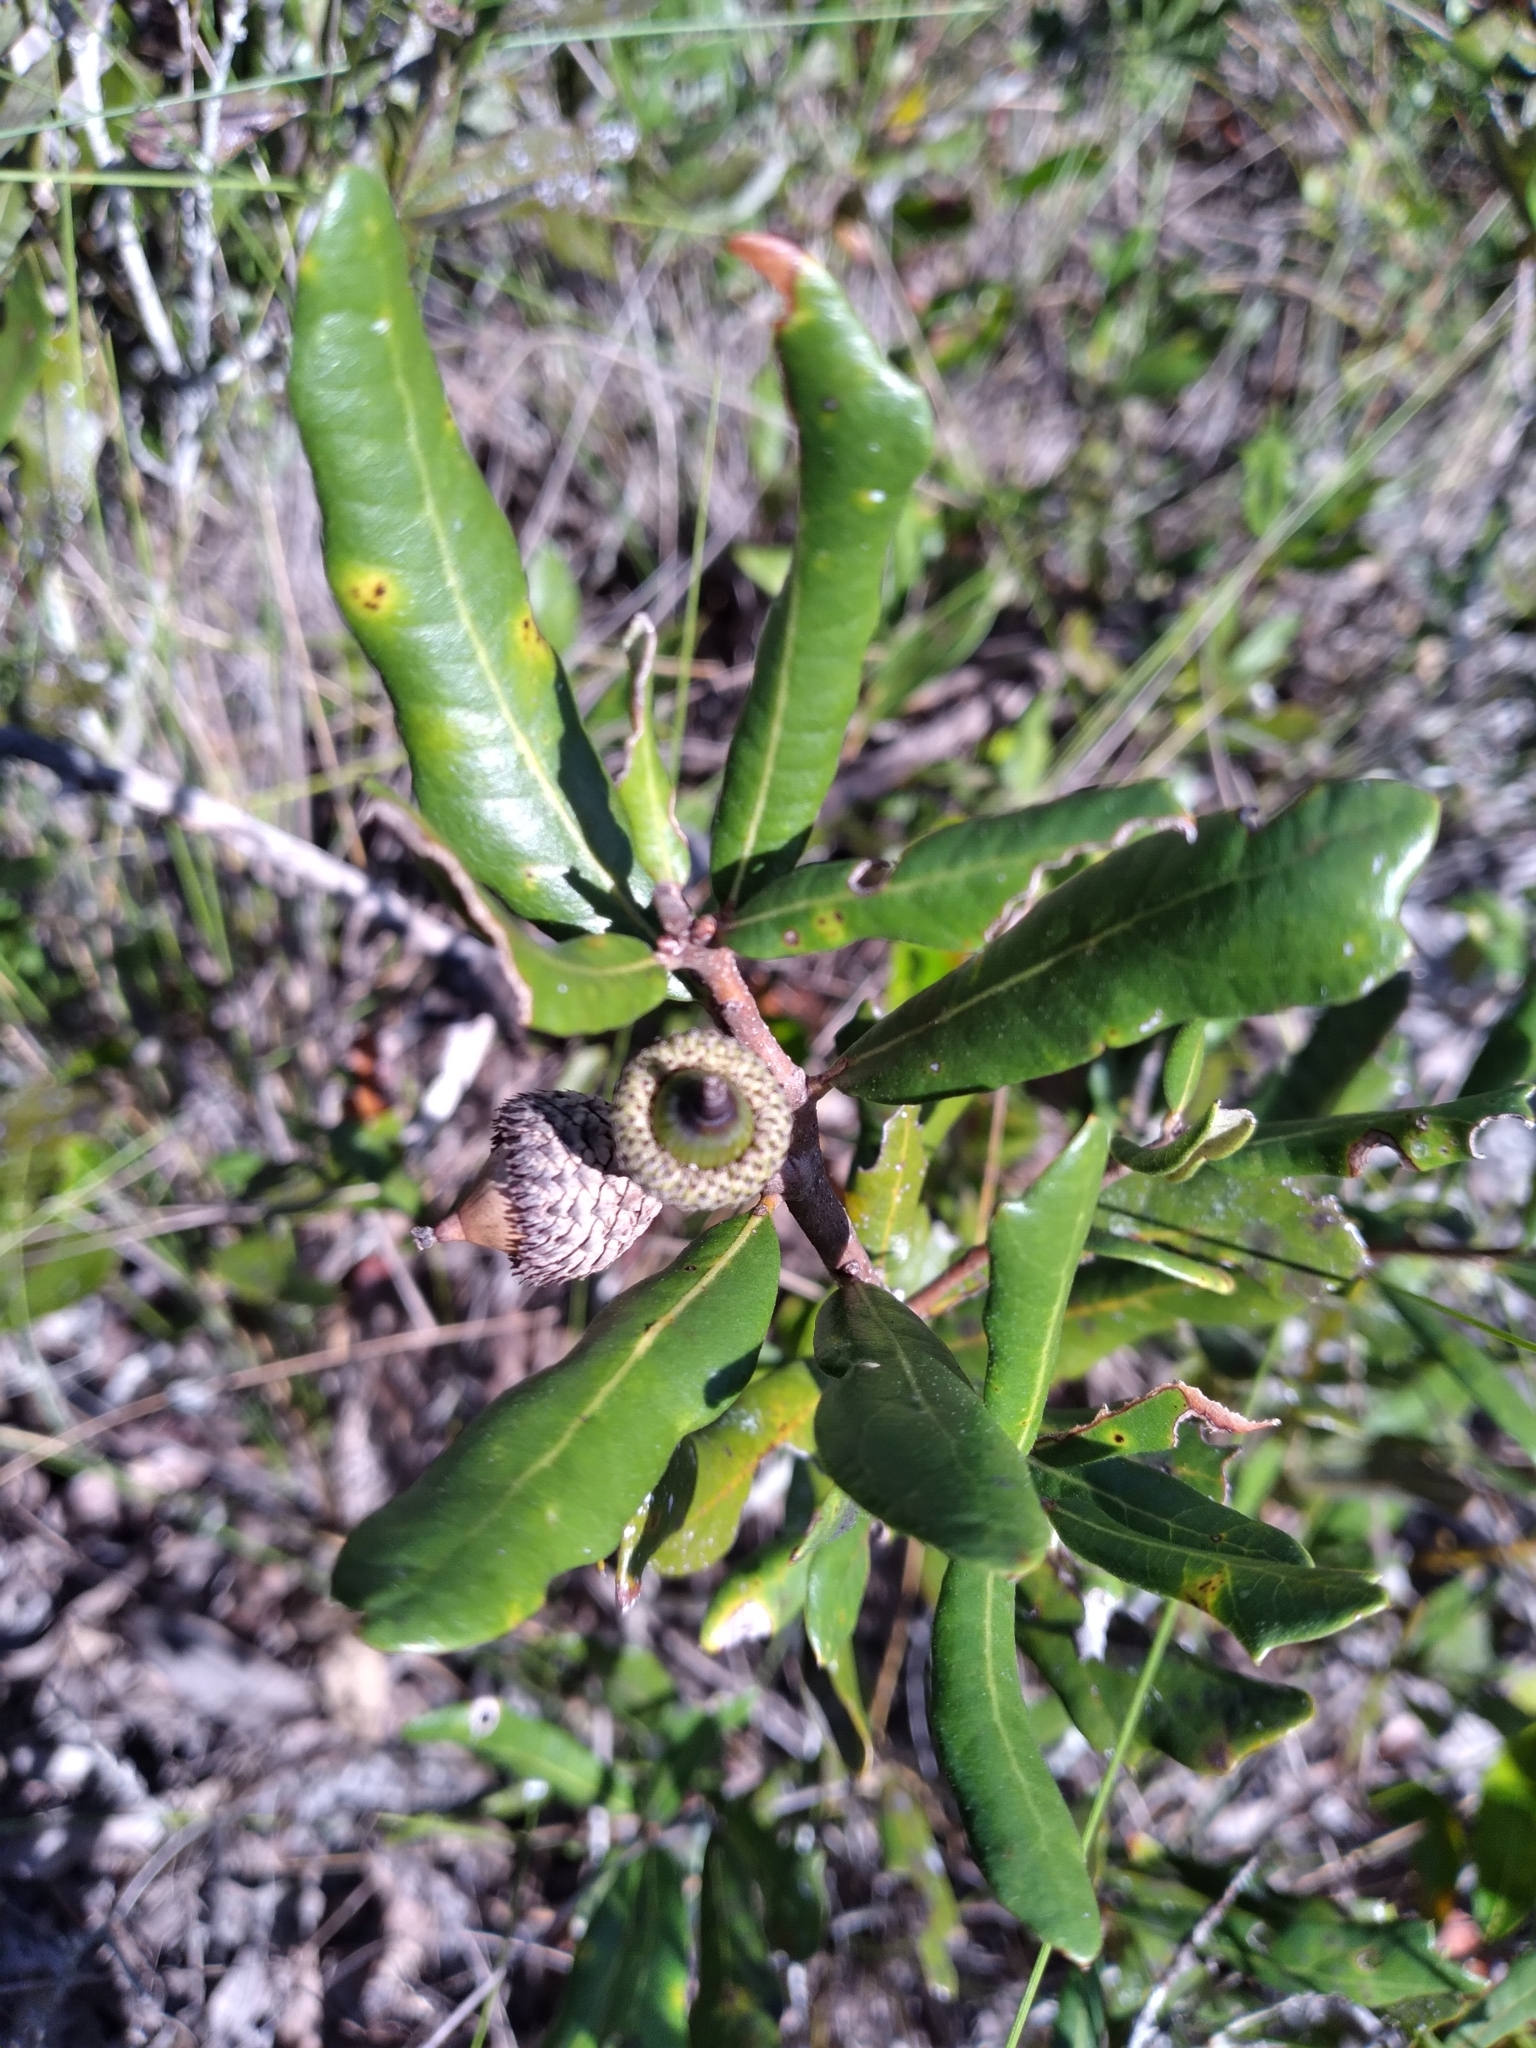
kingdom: Plantae
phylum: Tracheophyta
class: Magnoliopsida
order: Fagales
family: Fagaceae
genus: Quercus
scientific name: Quercus minima
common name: Dwarf live oak
